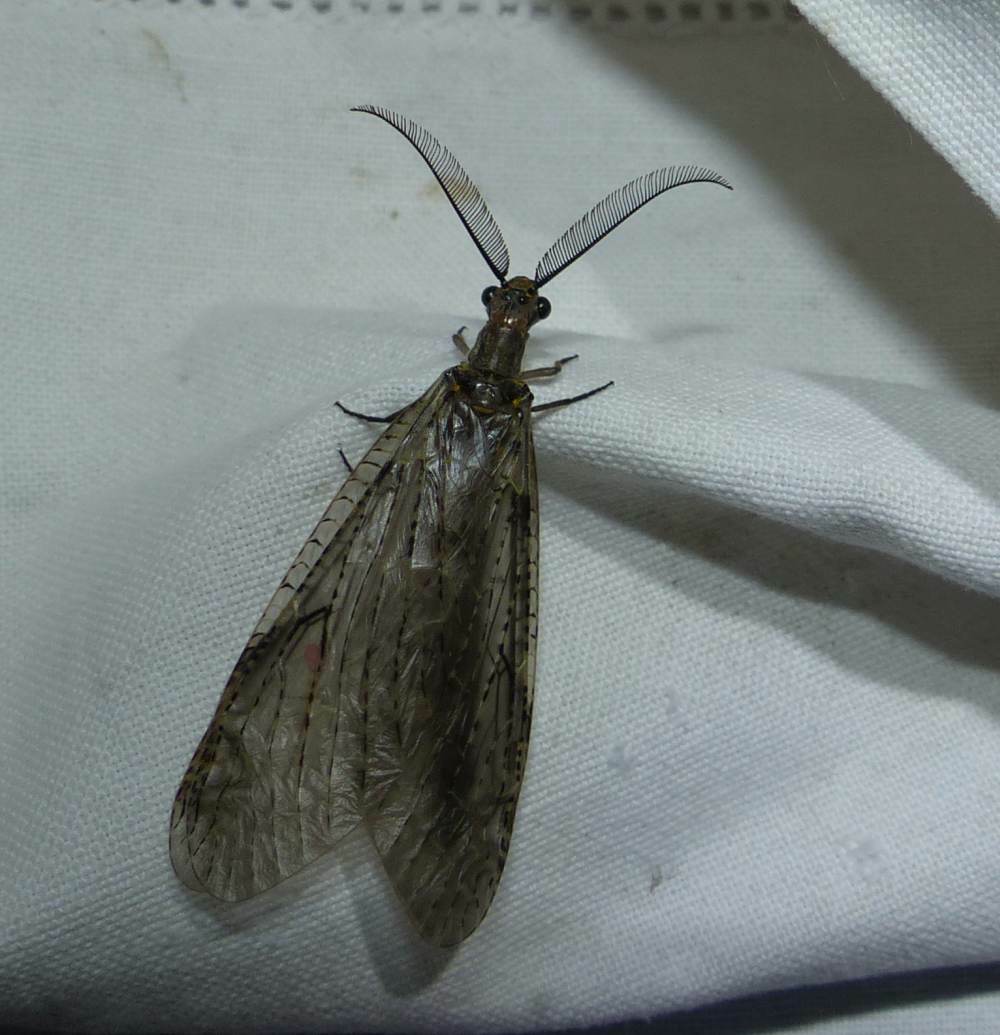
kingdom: Animalia
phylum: Arthropoda
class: Insecta
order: Megaloptera
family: Corydalidae
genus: Chauliodes
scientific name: Chauliodes rastricornis
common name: Spring fishfly
